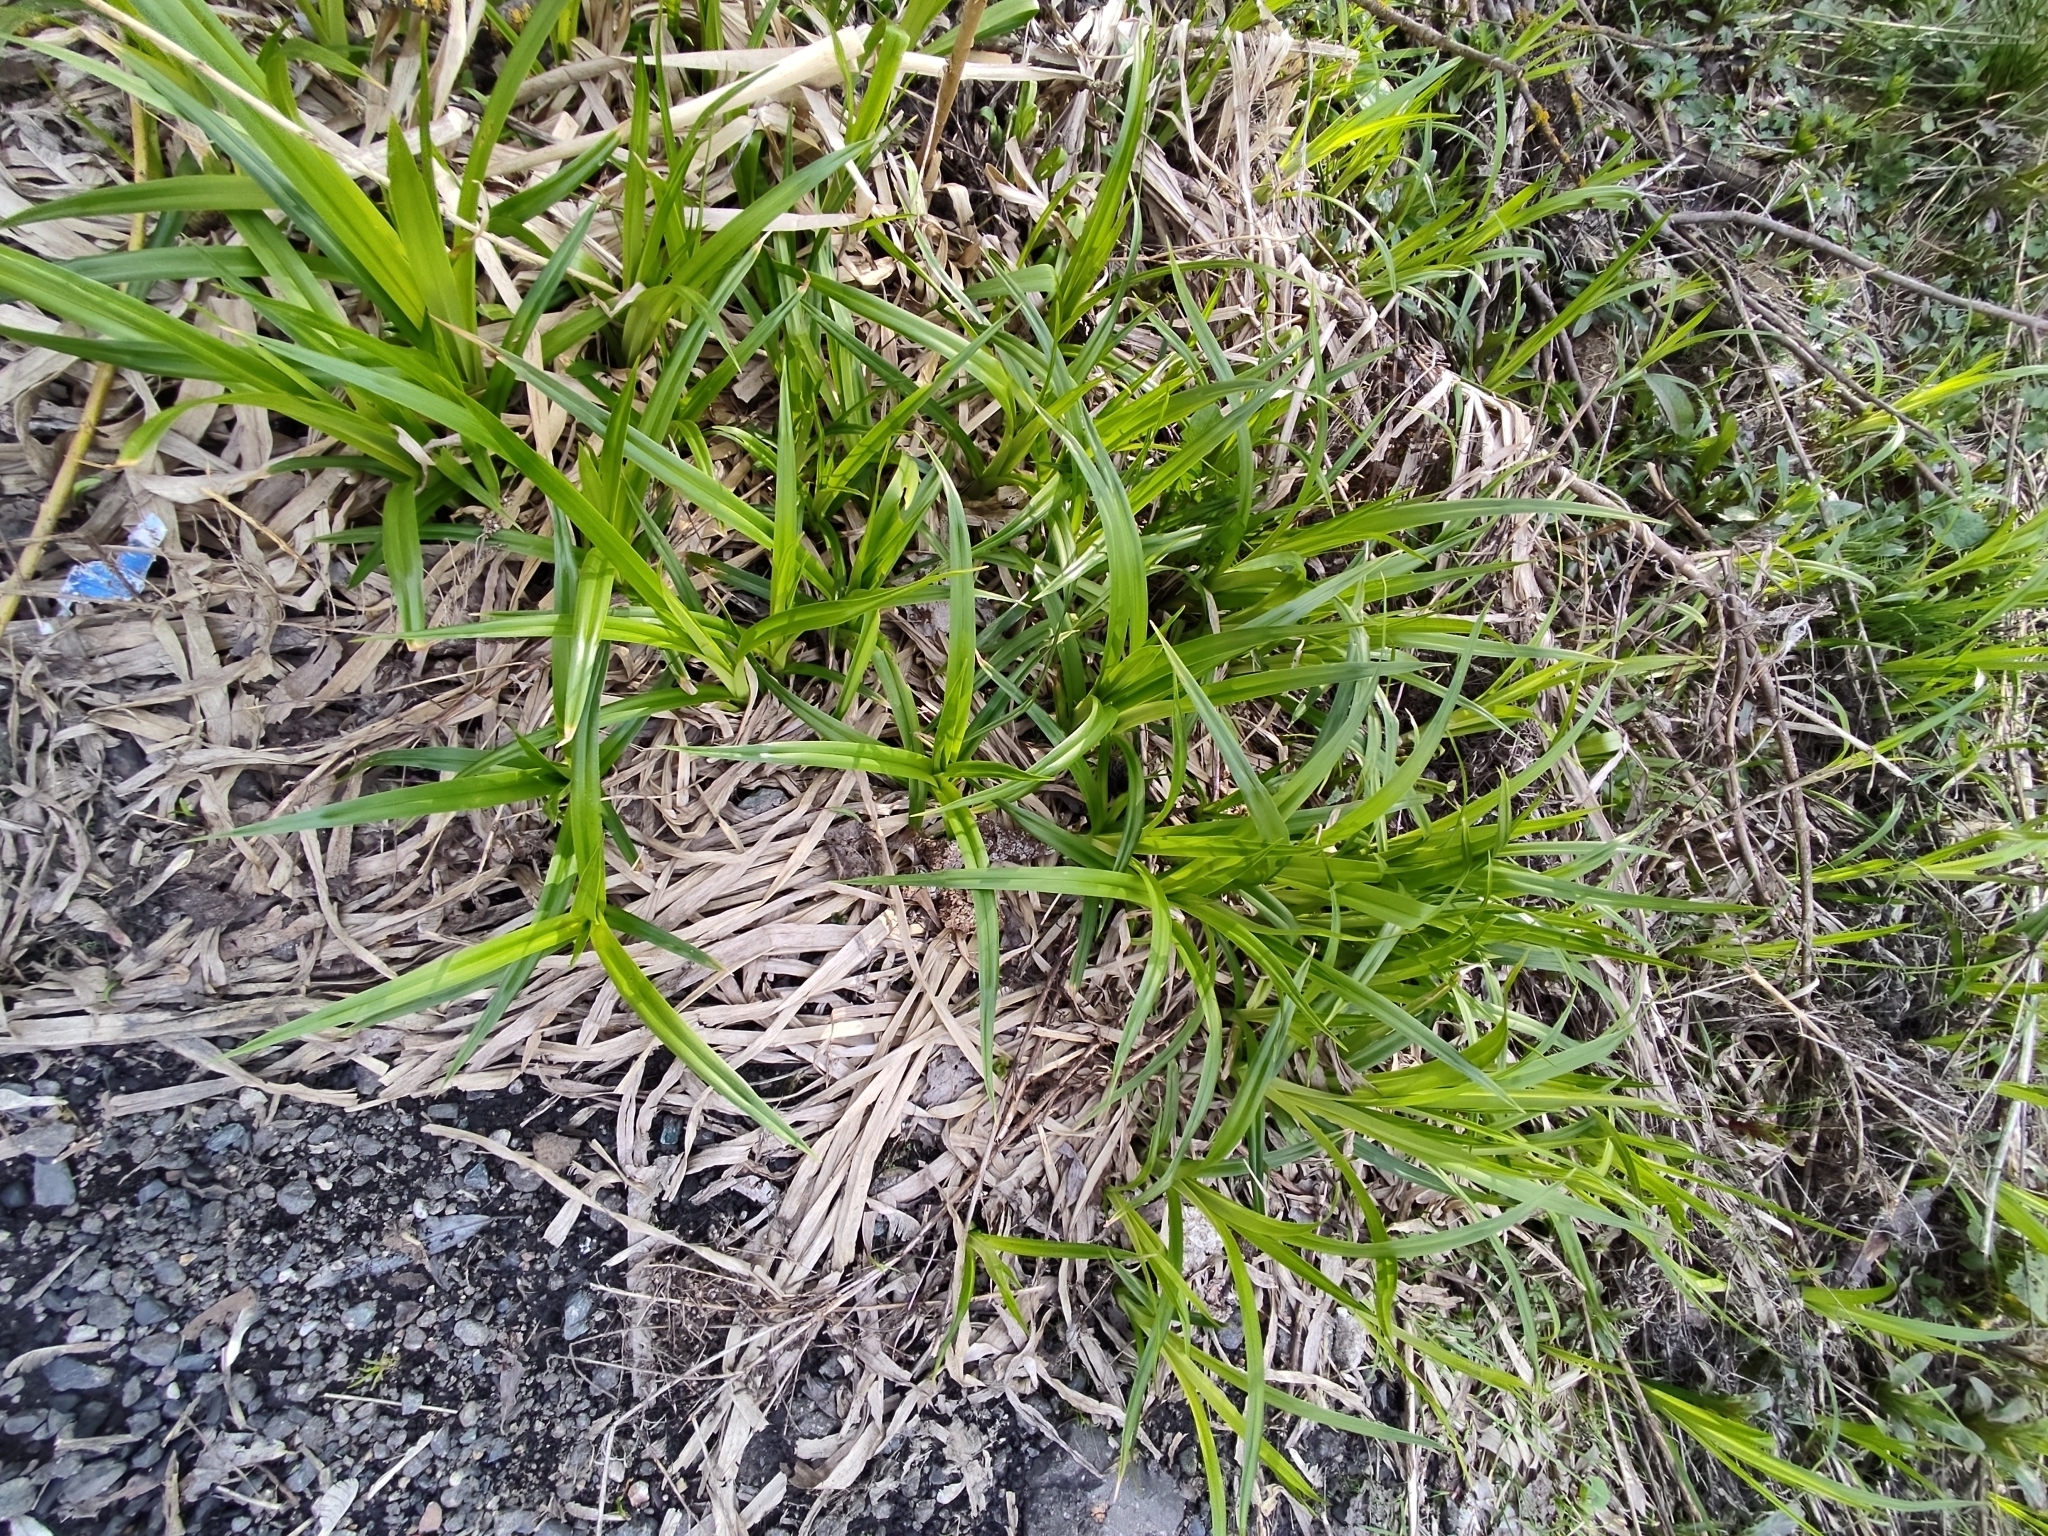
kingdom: Plantae
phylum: Tracheophyta
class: Liliopsida
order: Poales
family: Cyperaceae
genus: Scirpus
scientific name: Scirpus sylvaticus
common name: Wood club-rush
